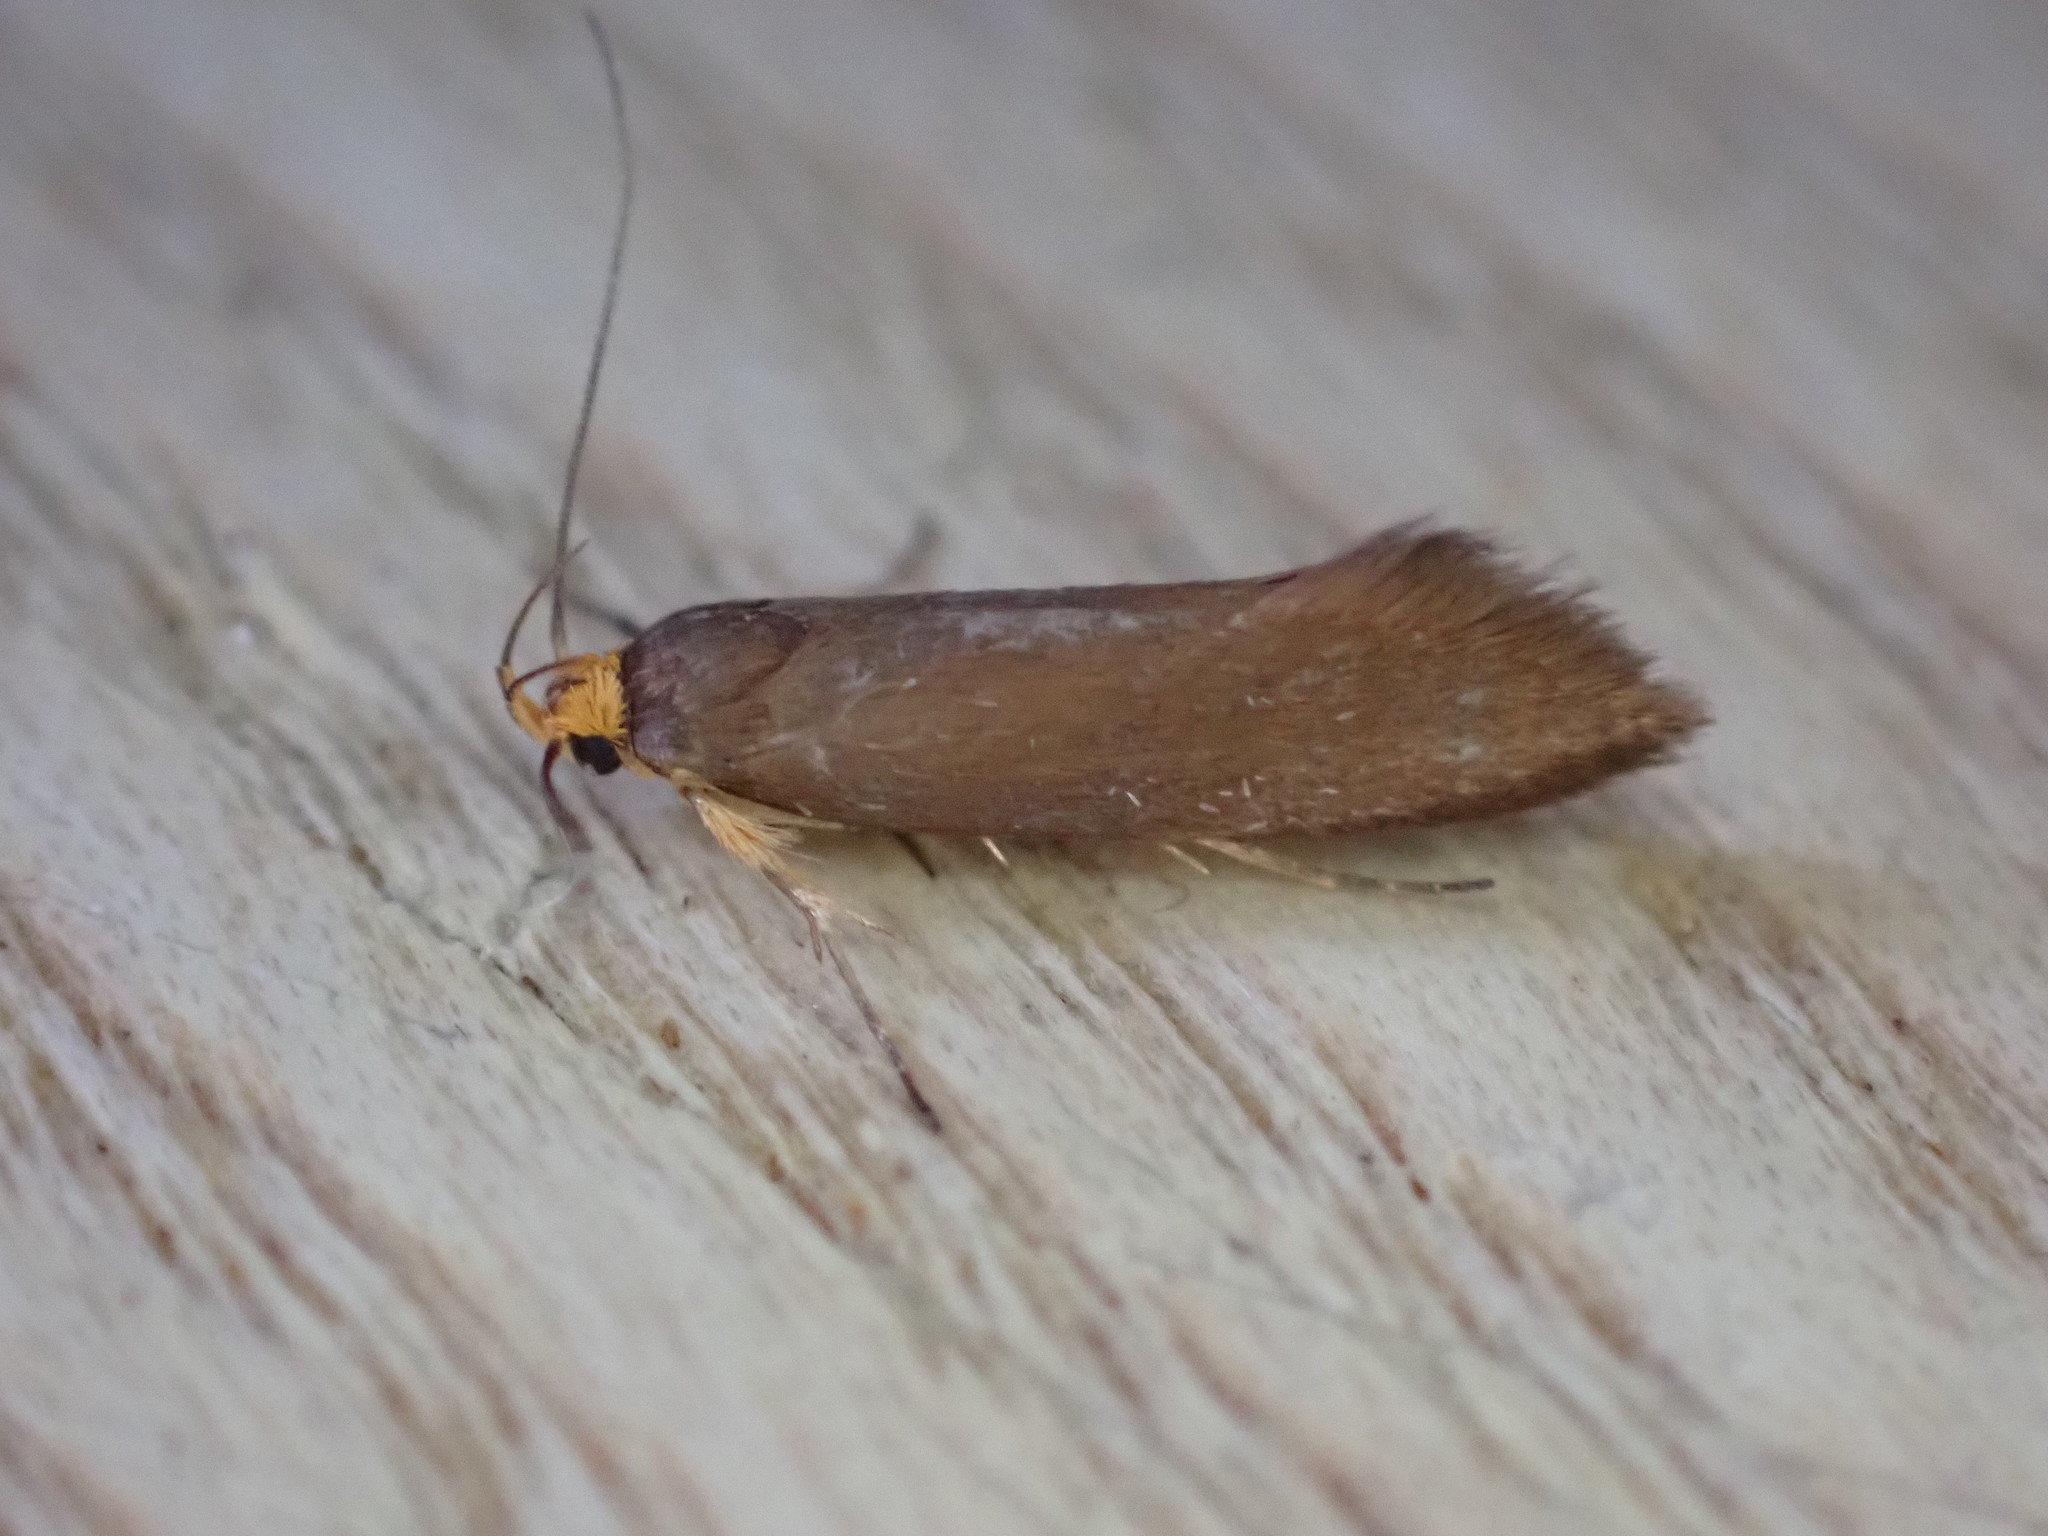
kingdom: Animalia
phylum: Arthropoda
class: Insecta
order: Lepidoptera
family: Oecophoridae
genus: Borkhausenia
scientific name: Borkhausenia Crassa unitella
